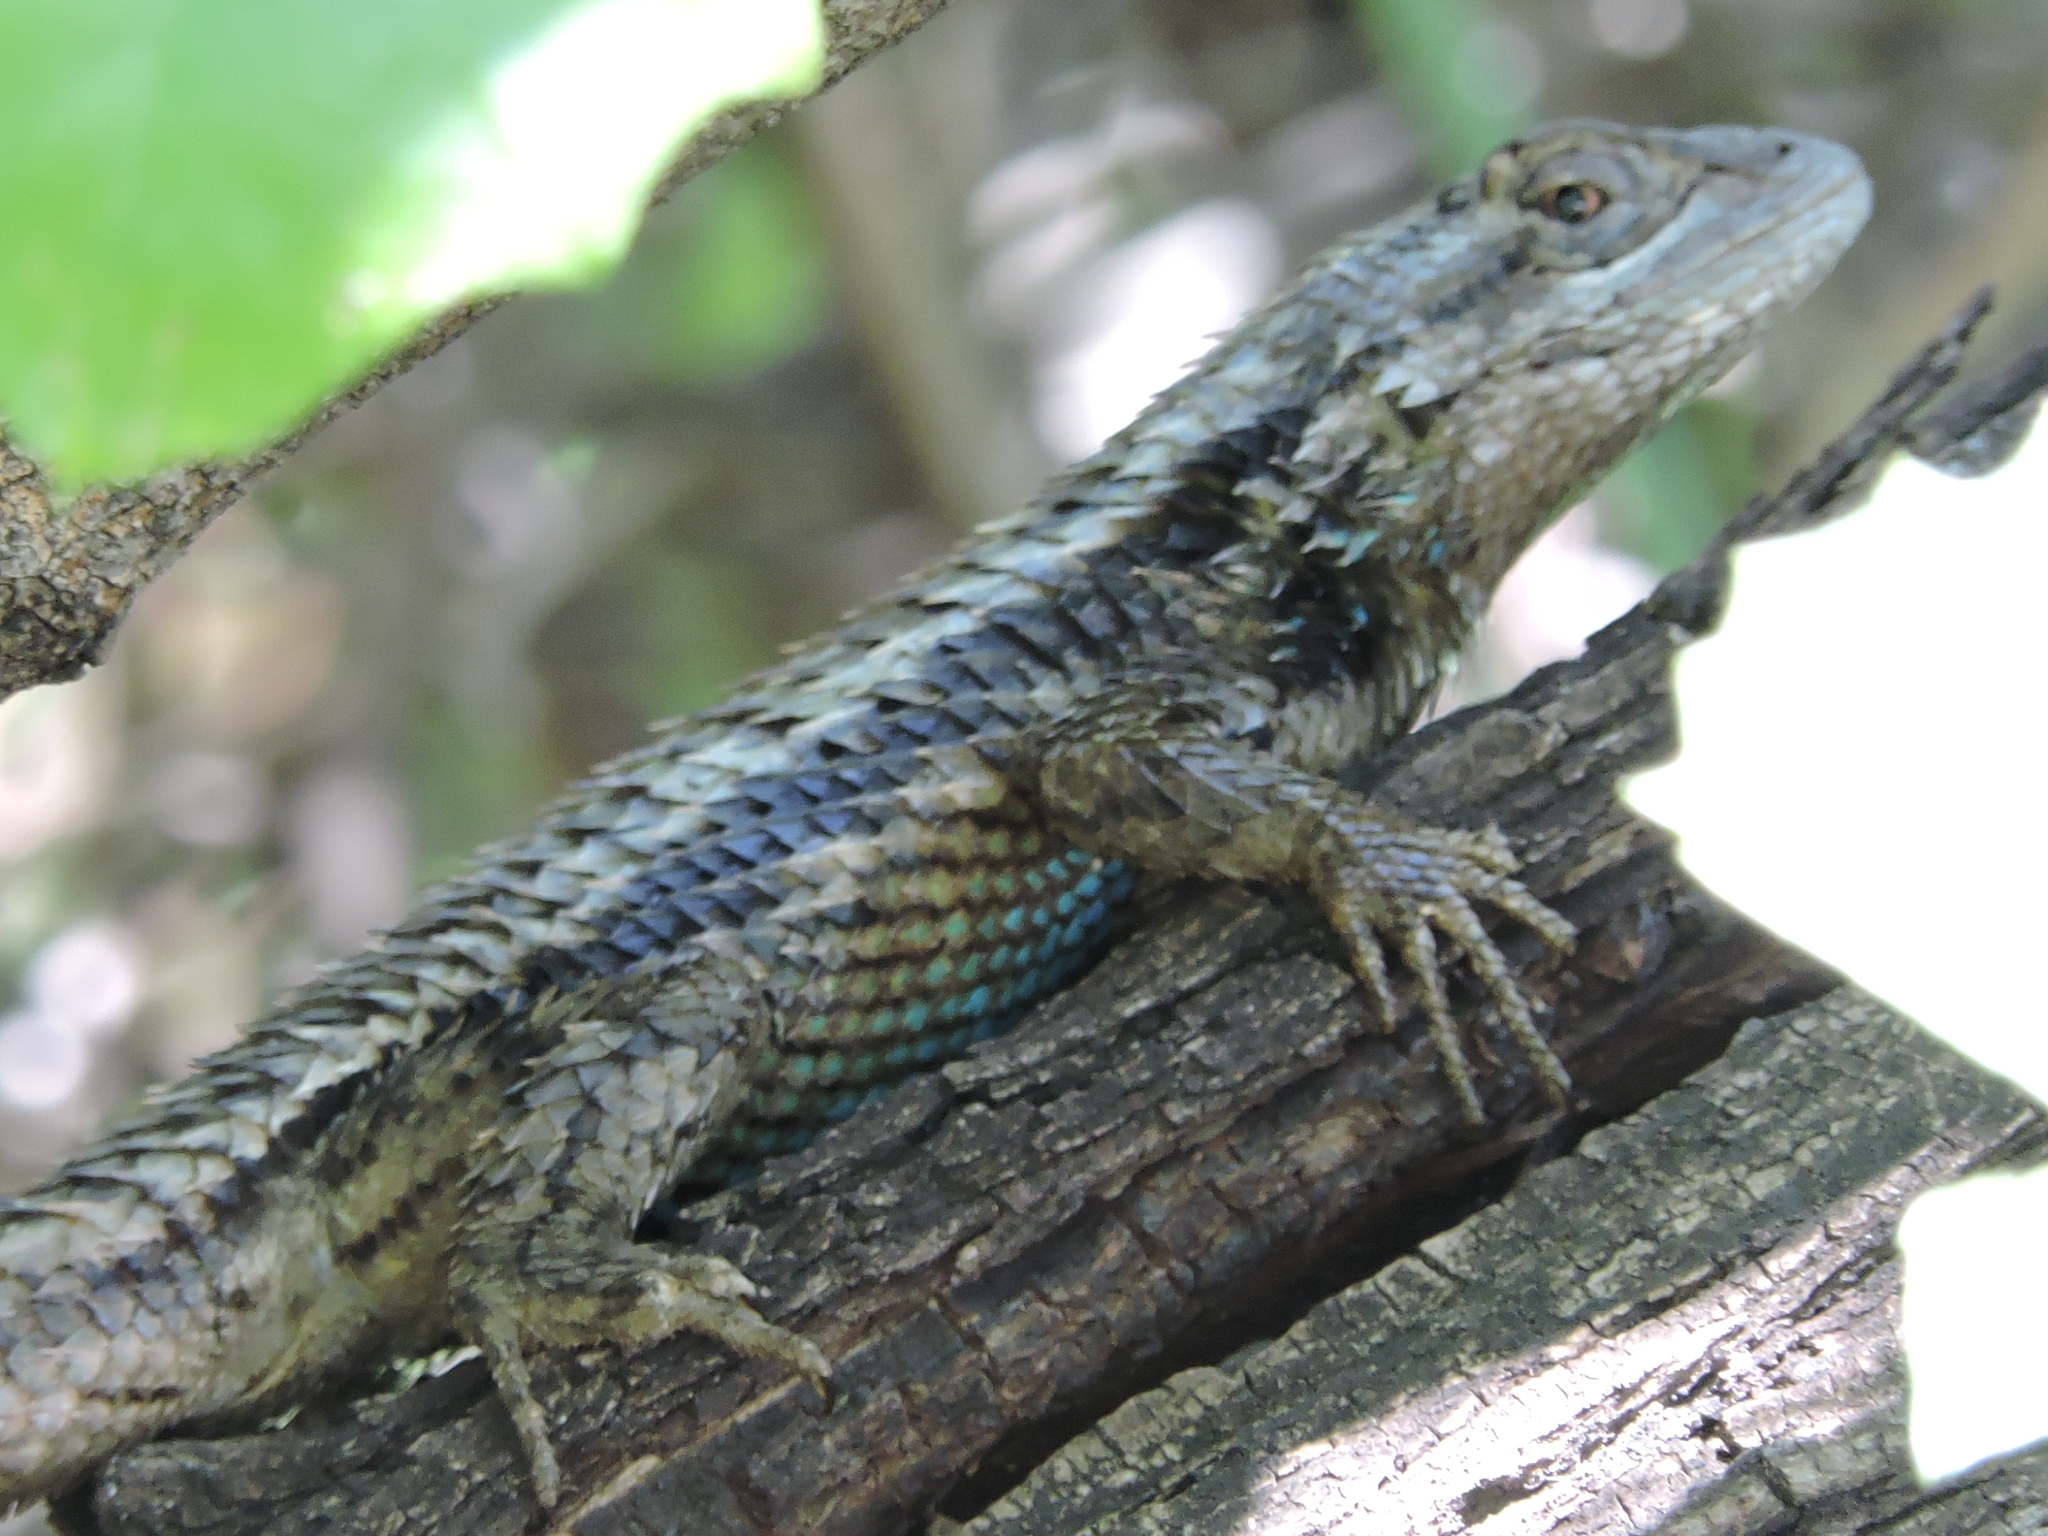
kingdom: Animalia
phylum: Chordata
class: Squamata
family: Phrynosomatidae
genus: Sceloporus
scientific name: Sceloporus olivaceus
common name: Texas spiny lizard
